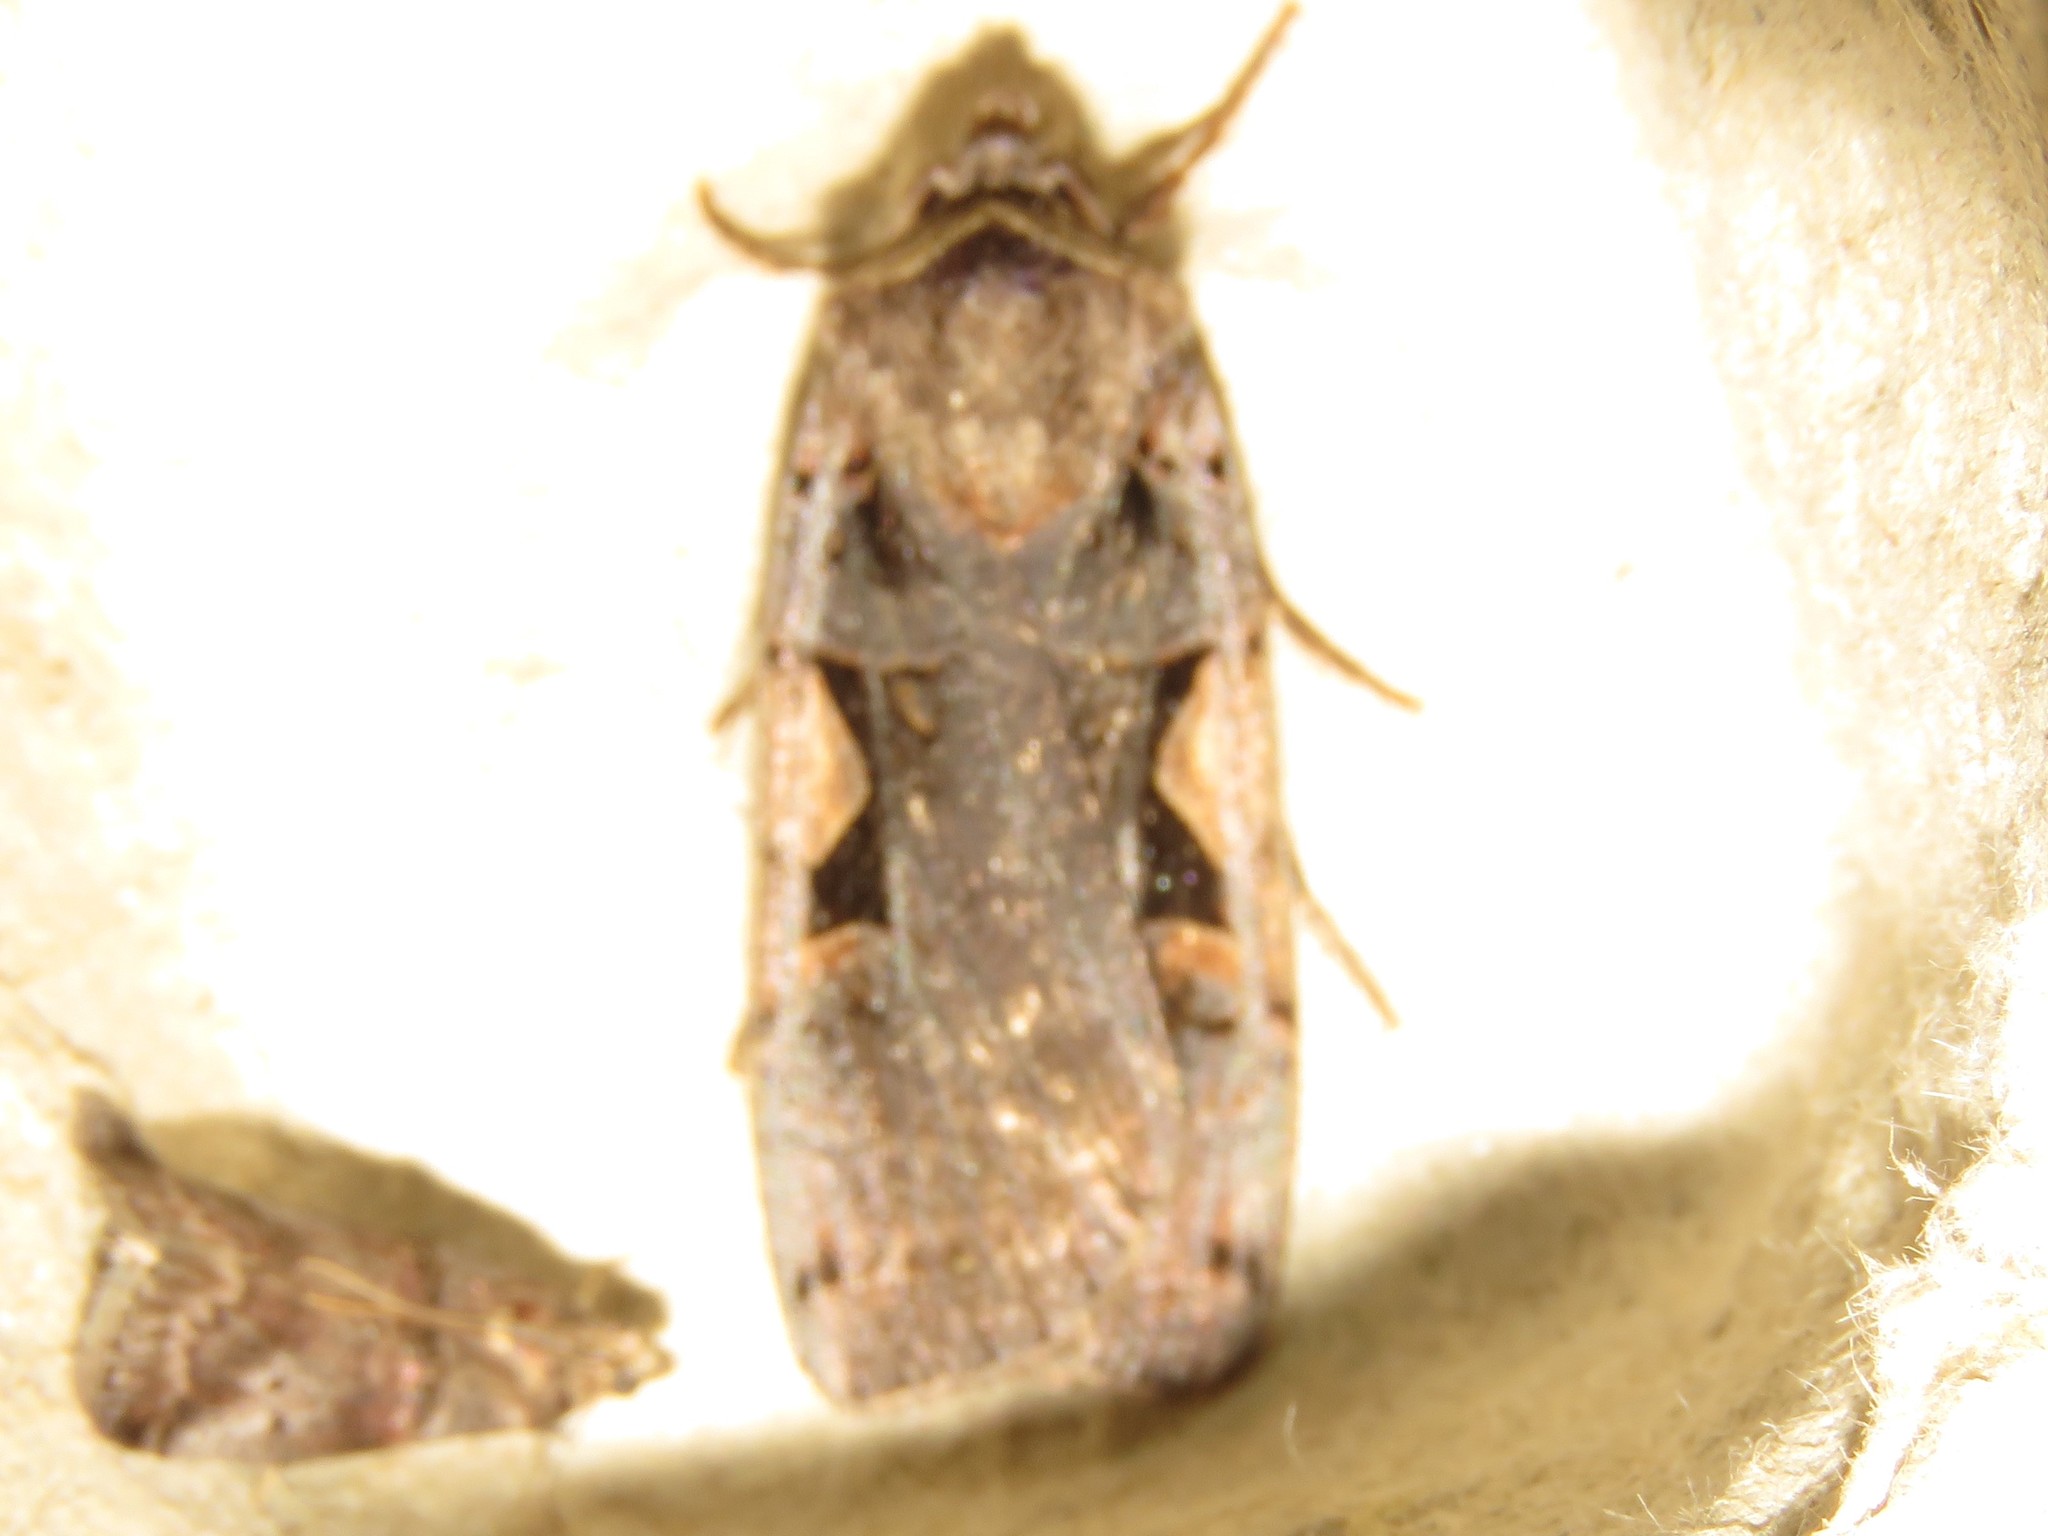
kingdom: Animalia
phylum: Arthropoda
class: Insecta
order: Lepidoptera
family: Noctuidae
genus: Xestia
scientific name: Xestia
